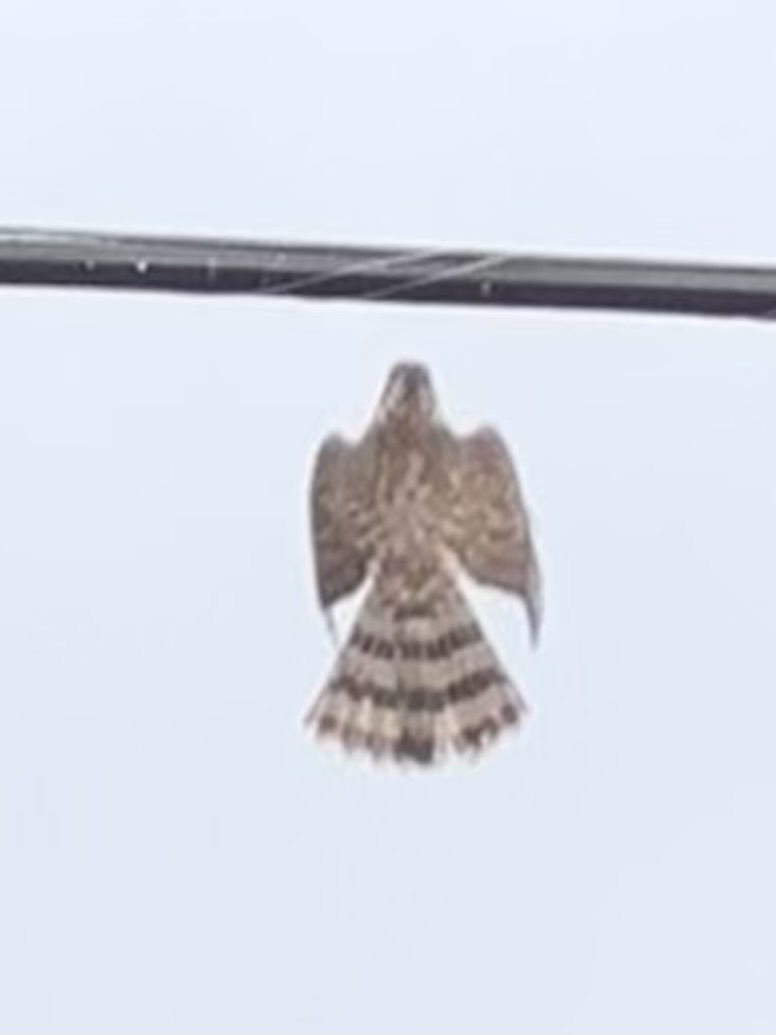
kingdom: Animalia
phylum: Chordata
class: Aves
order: Accipitriformes
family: Accipitridae
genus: Accipiter
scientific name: Accipiter cooperii
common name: Cooper's hawk
